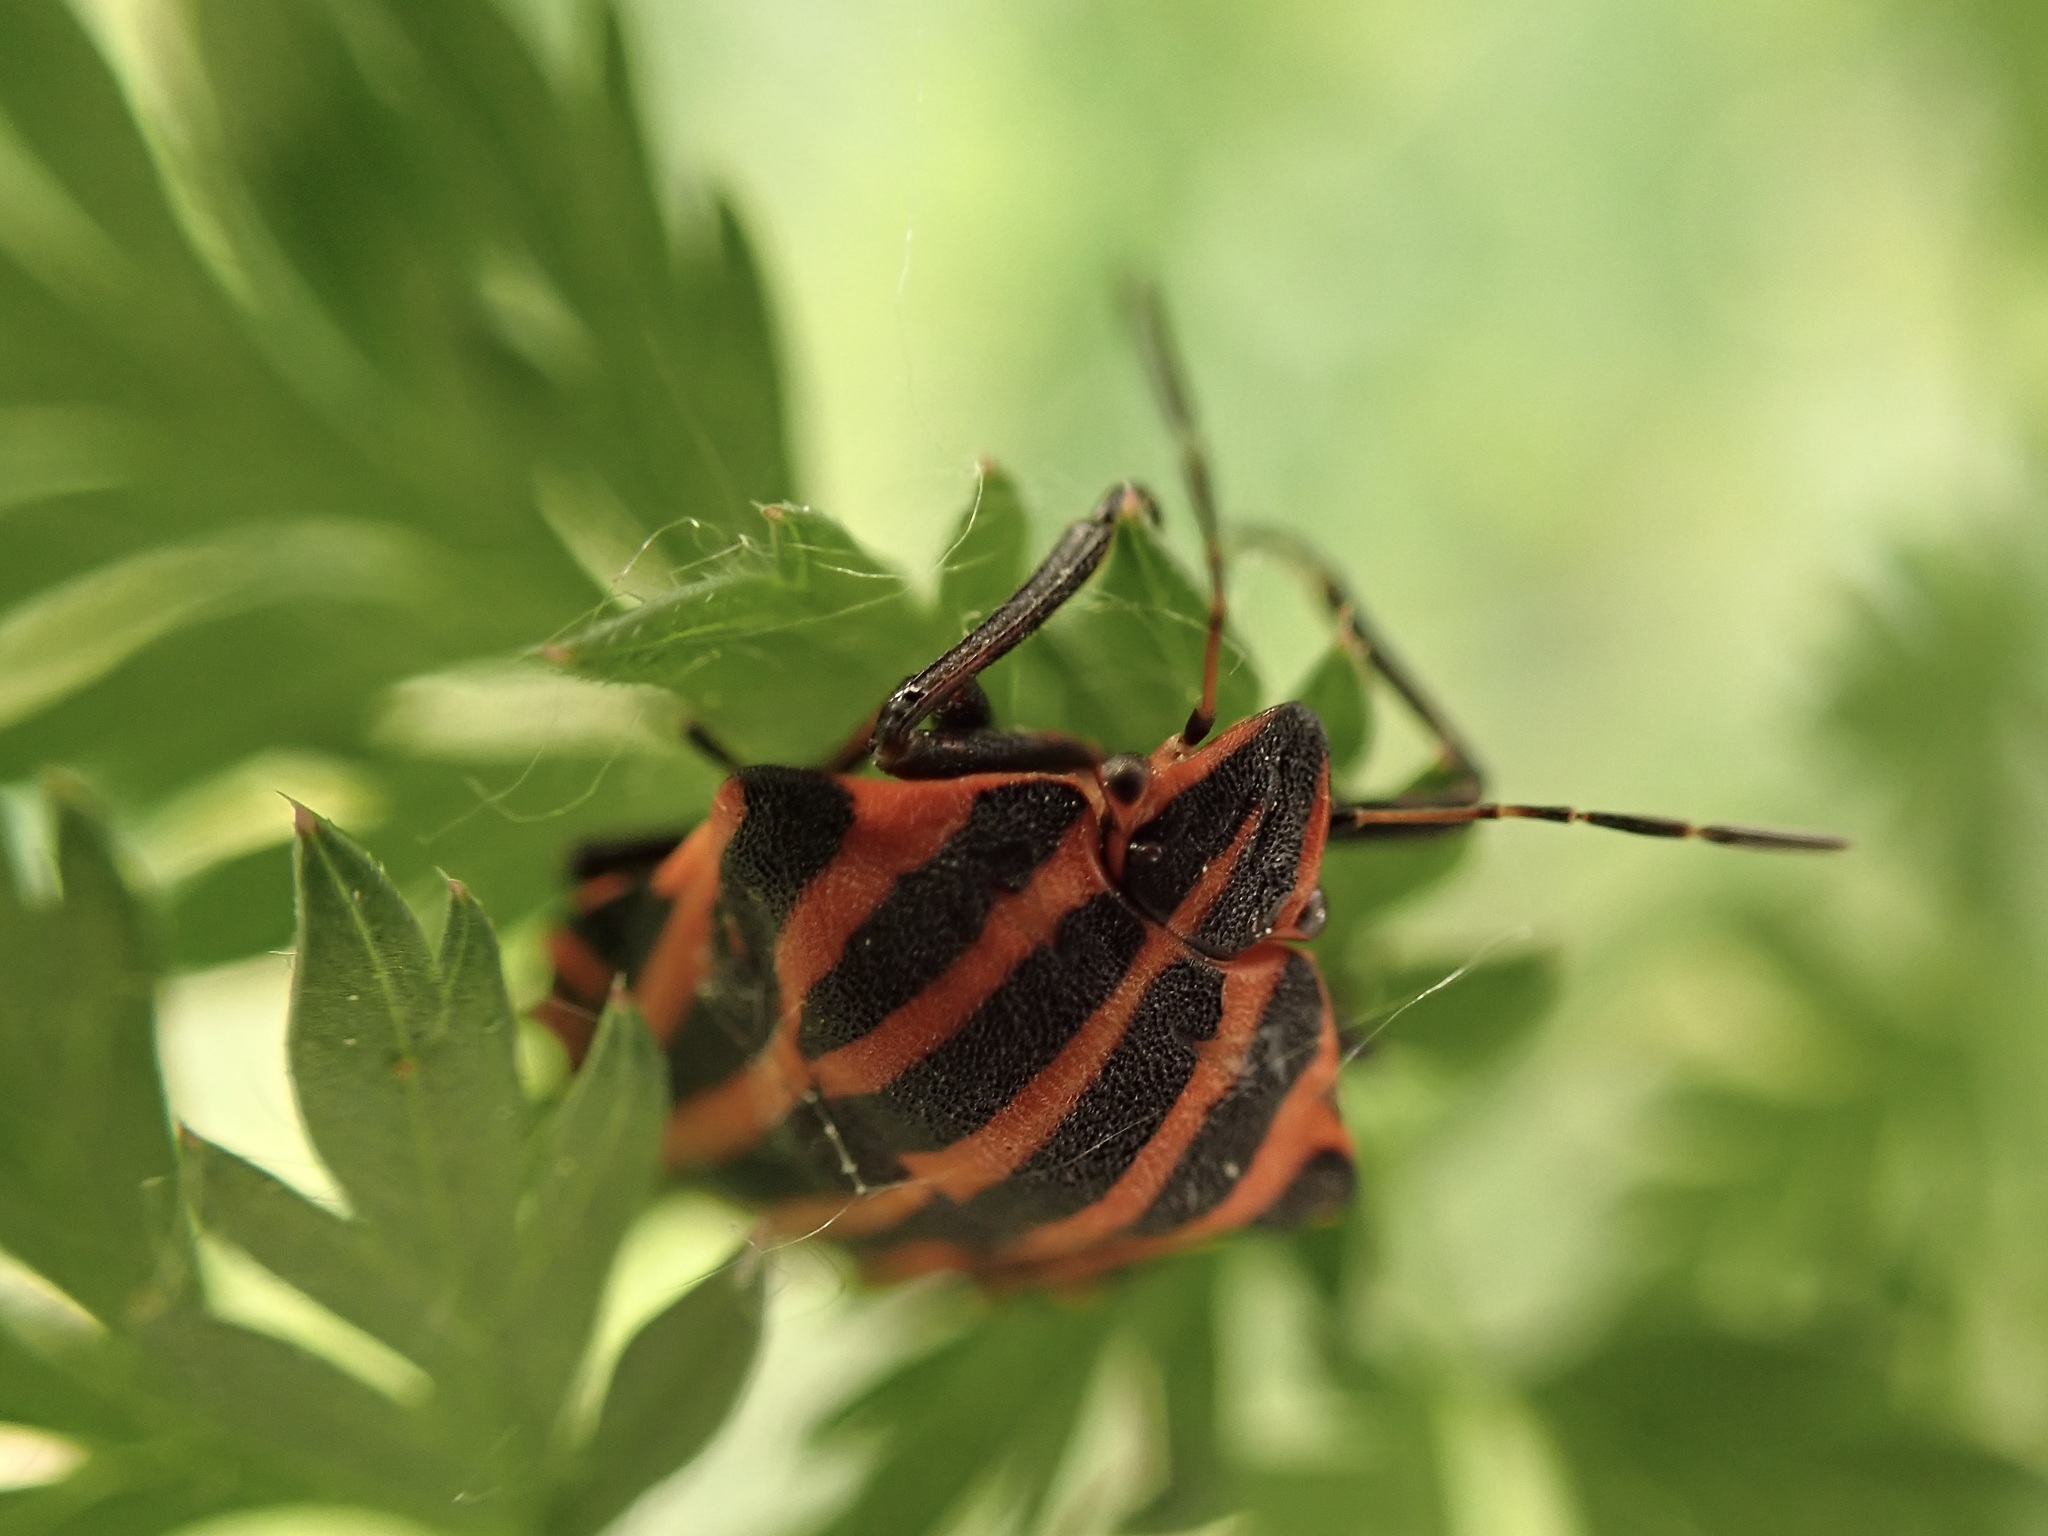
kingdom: Animalia
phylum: Arthropoda
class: Insecta
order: Hemiptera
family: Pentatomidae
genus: Graphosoma
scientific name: Graphosoma italicum
